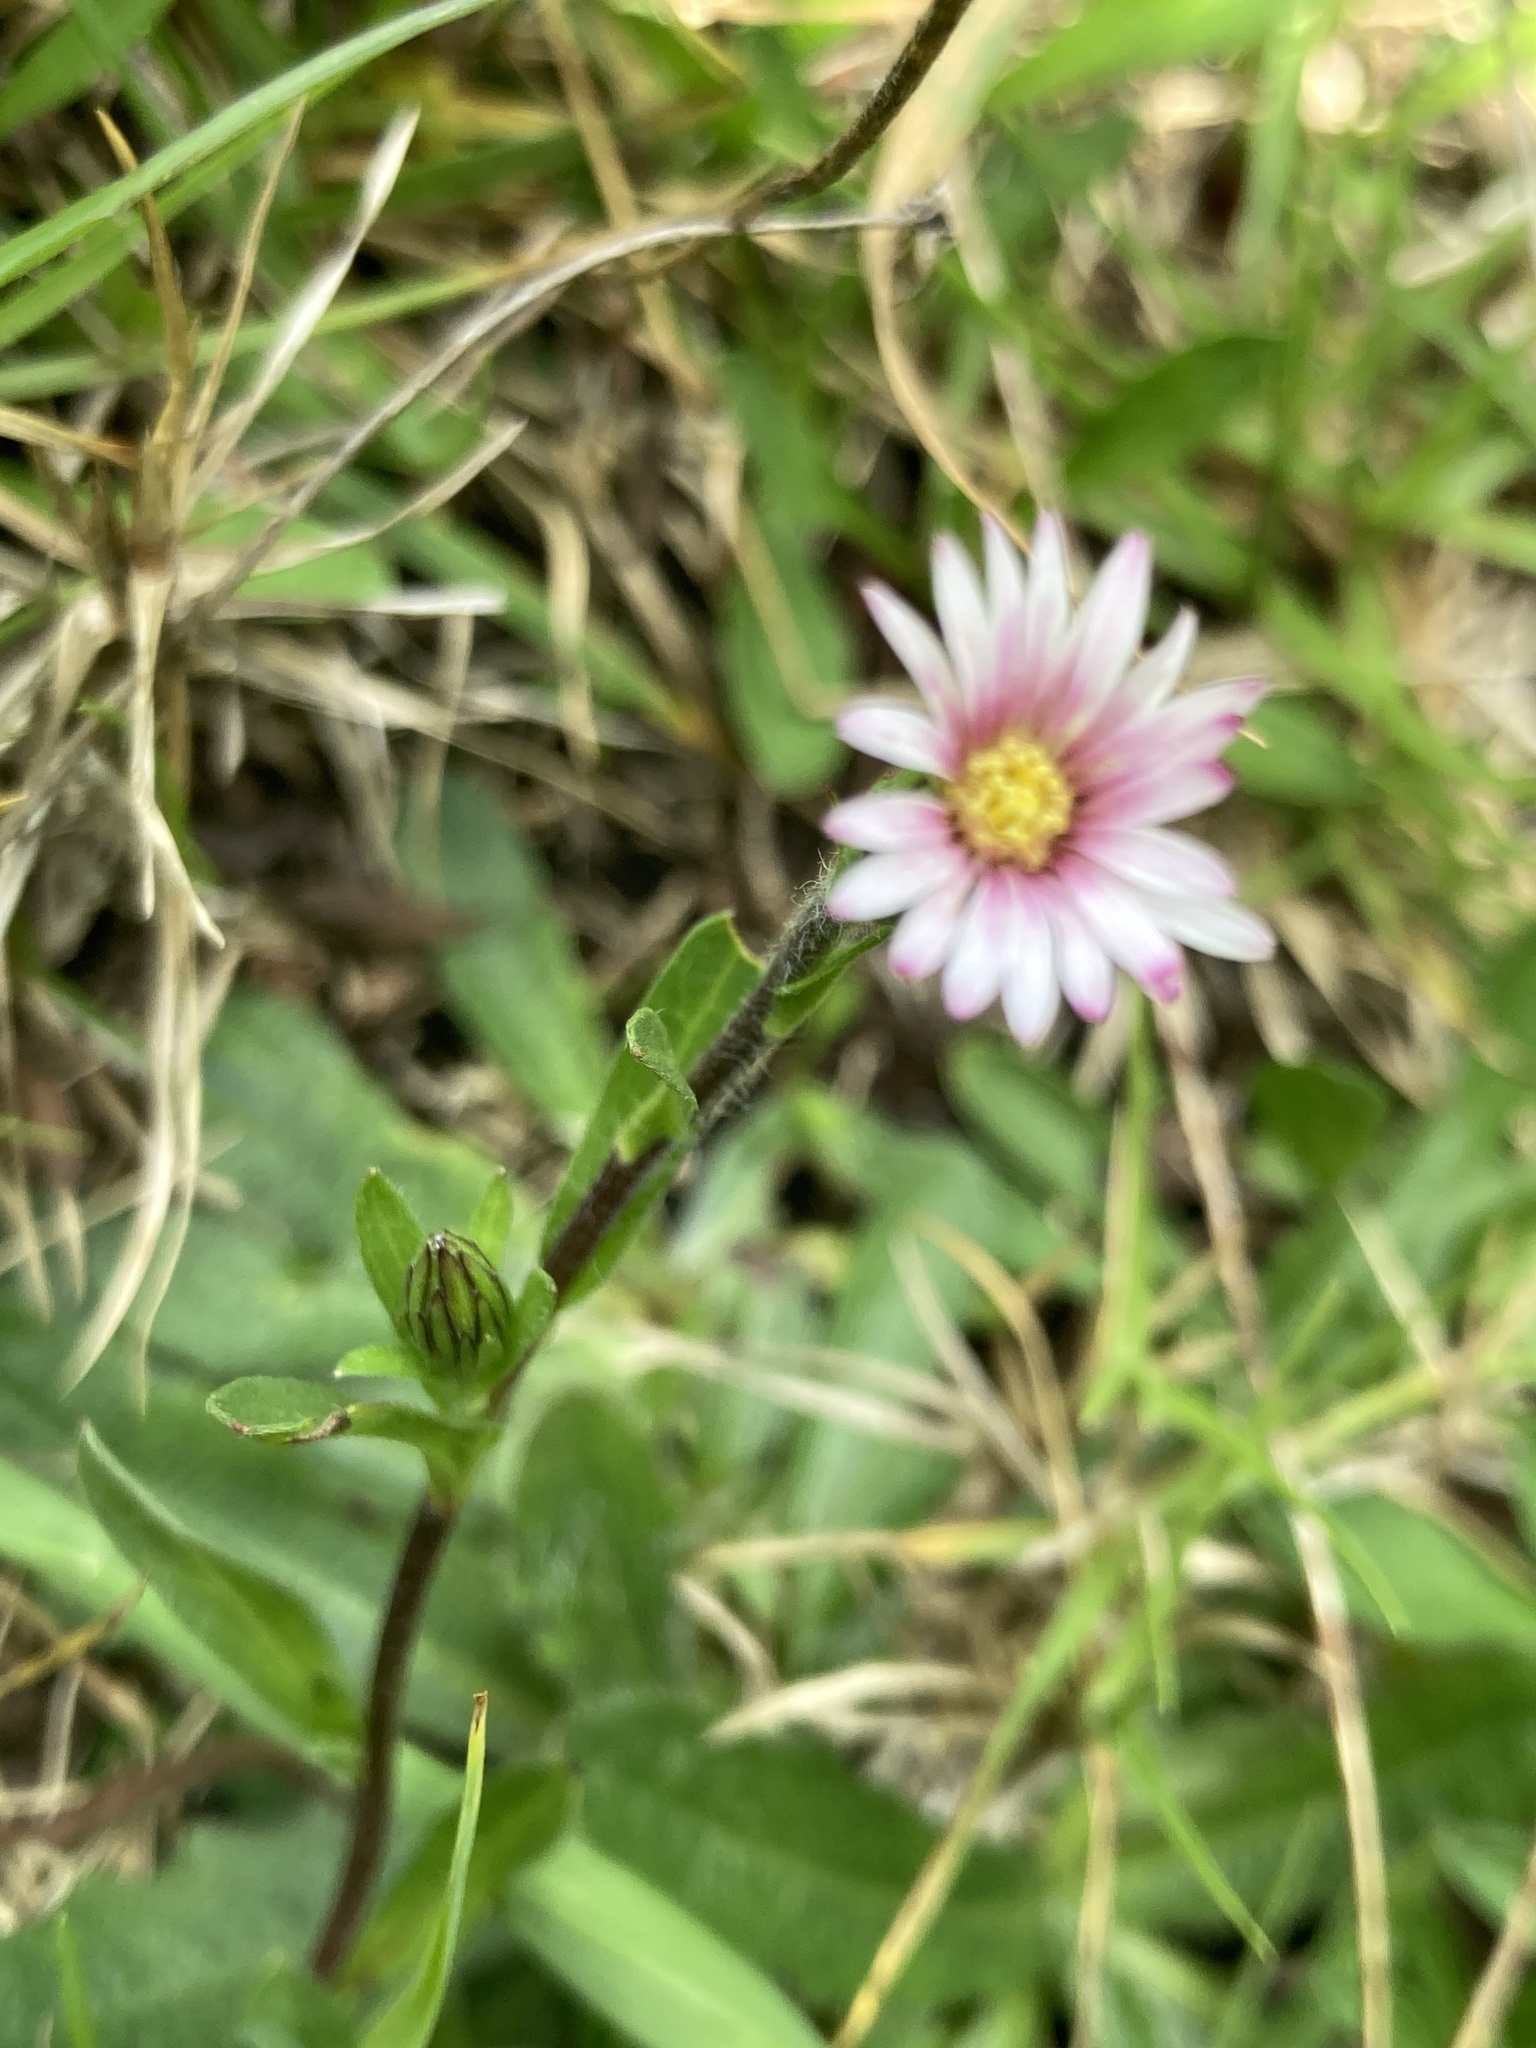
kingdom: Plantae
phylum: Tracheophyta
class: Magnoliopsida
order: Asterales
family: Asteraceae
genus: Noticastrum
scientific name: Noticastrum marginatum
